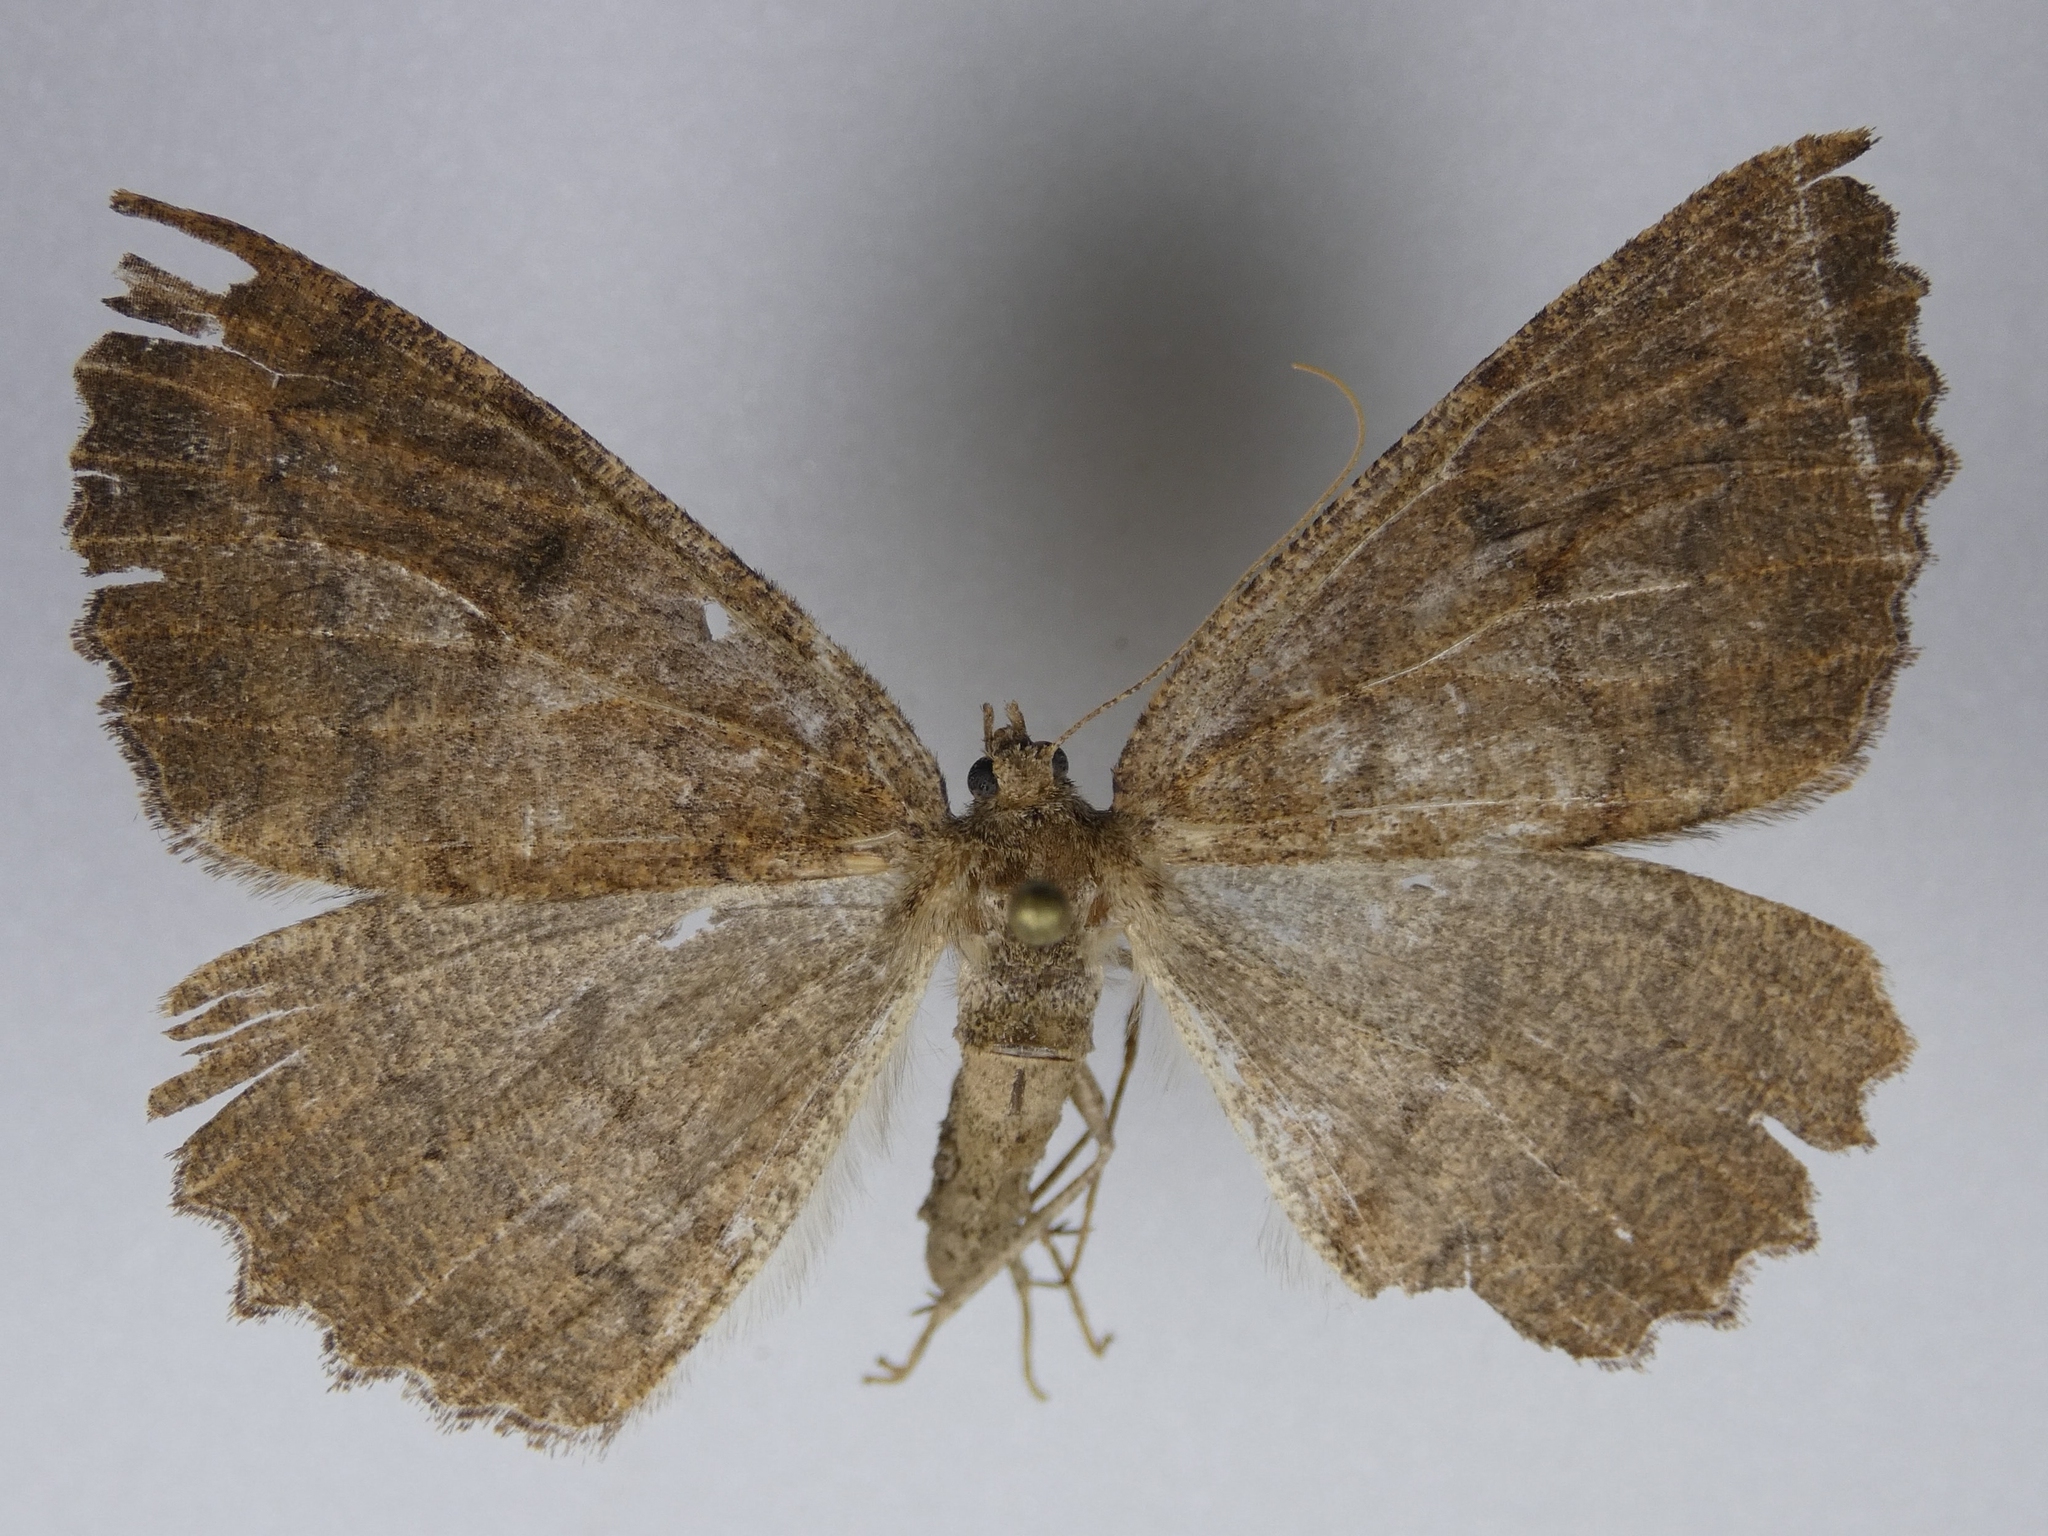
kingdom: Animalia
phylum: Arthropoda
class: Insecta
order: Lepidoptera
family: Geometridae
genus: Cleora
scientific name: Cleora scriptaria
